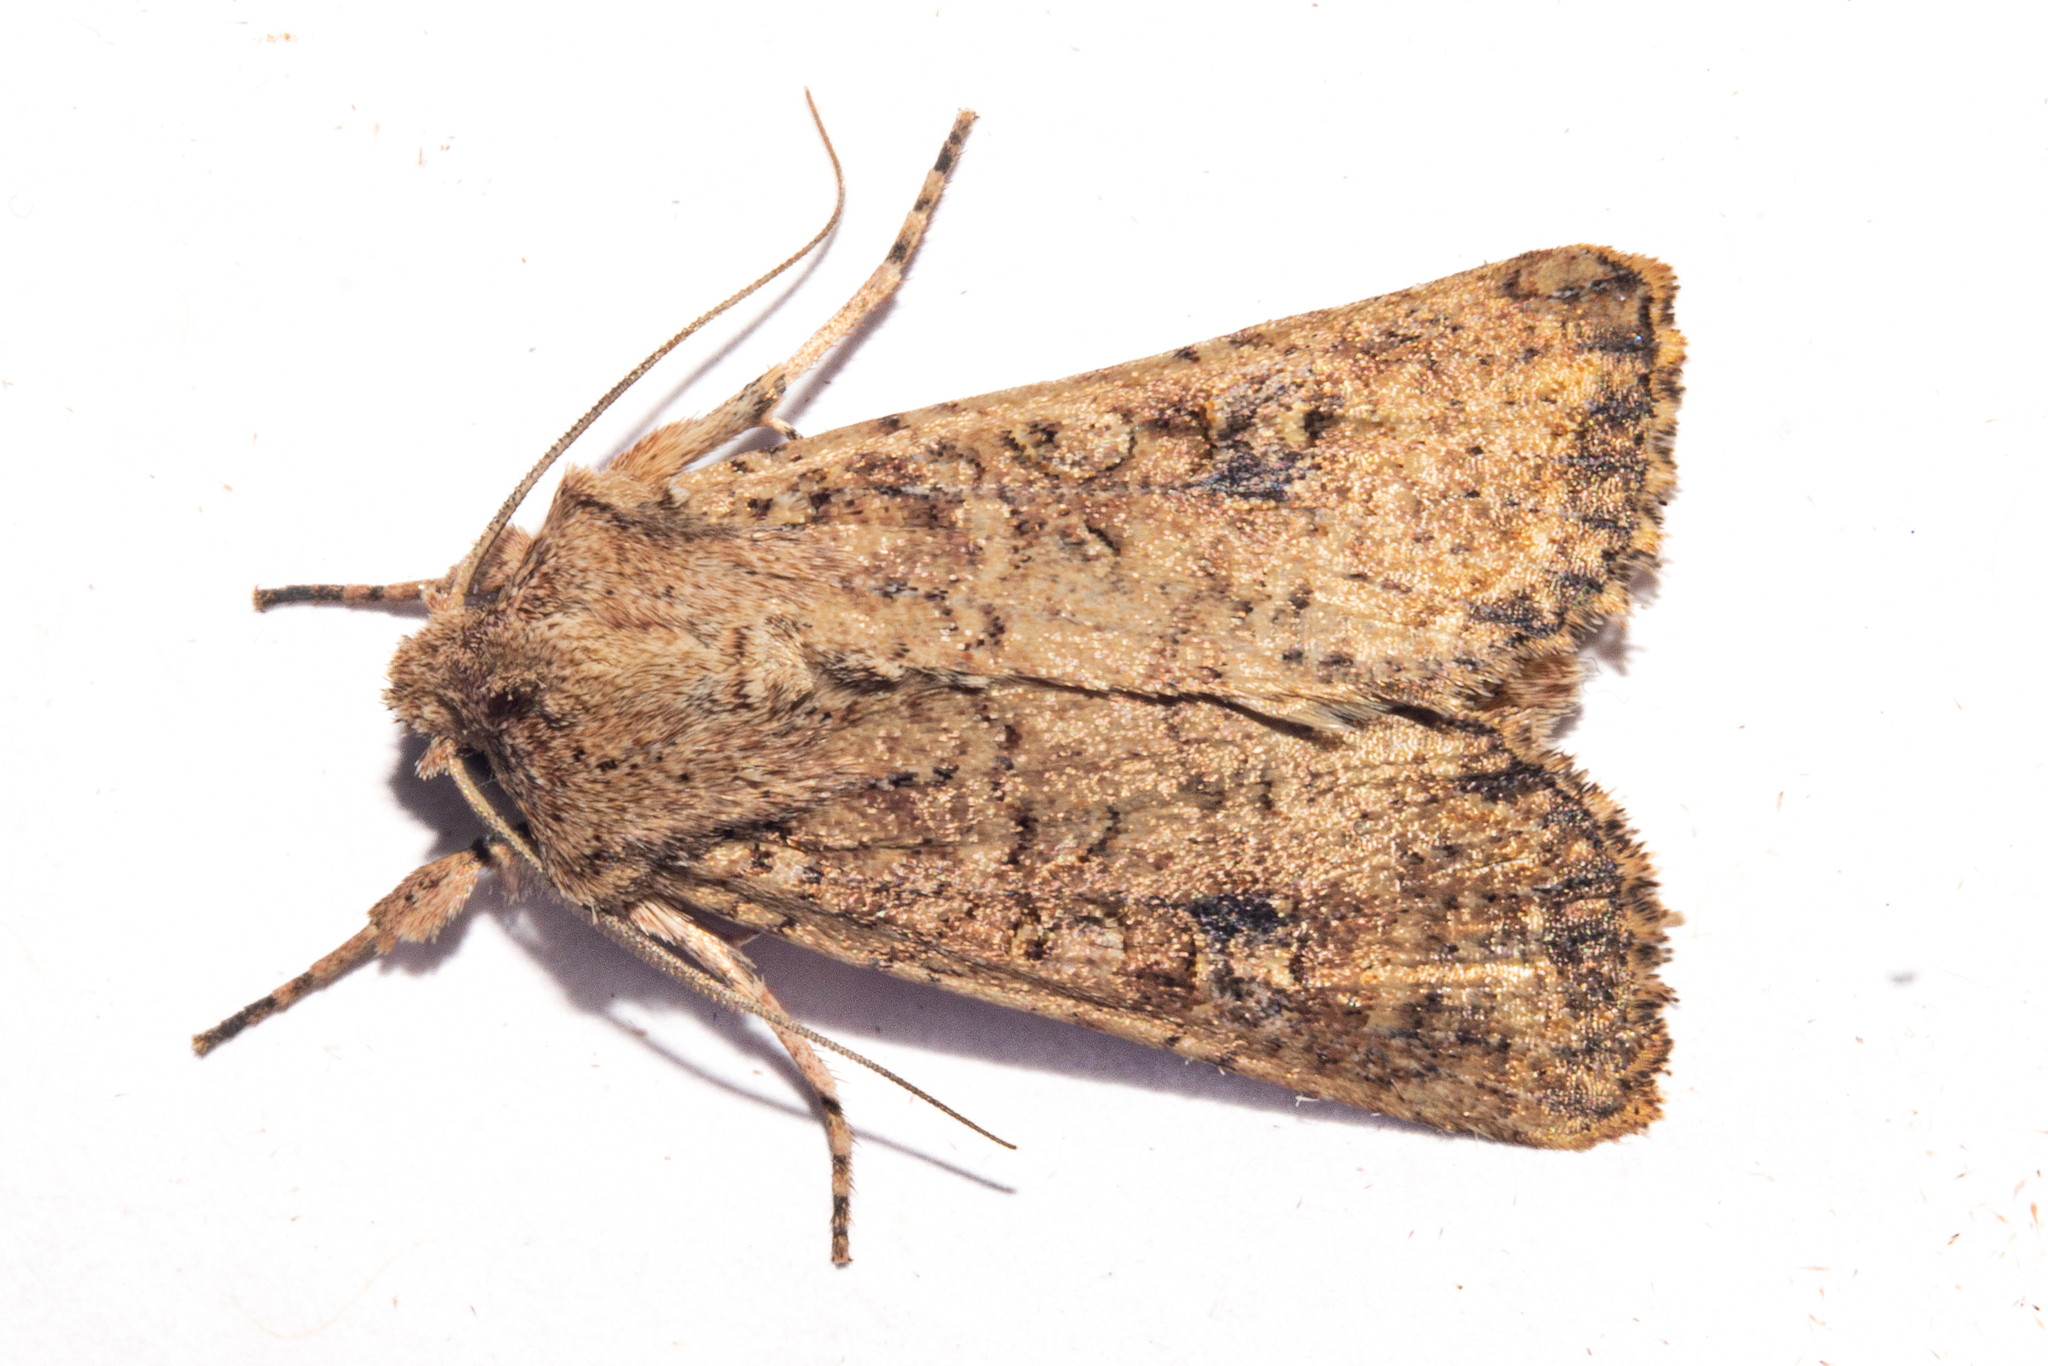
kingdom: Animalia
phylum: Arthropoda
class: Insecta
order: Lepidoptera
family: Noctuidae
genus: Ichneutica
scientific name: Ichneutica morosa
